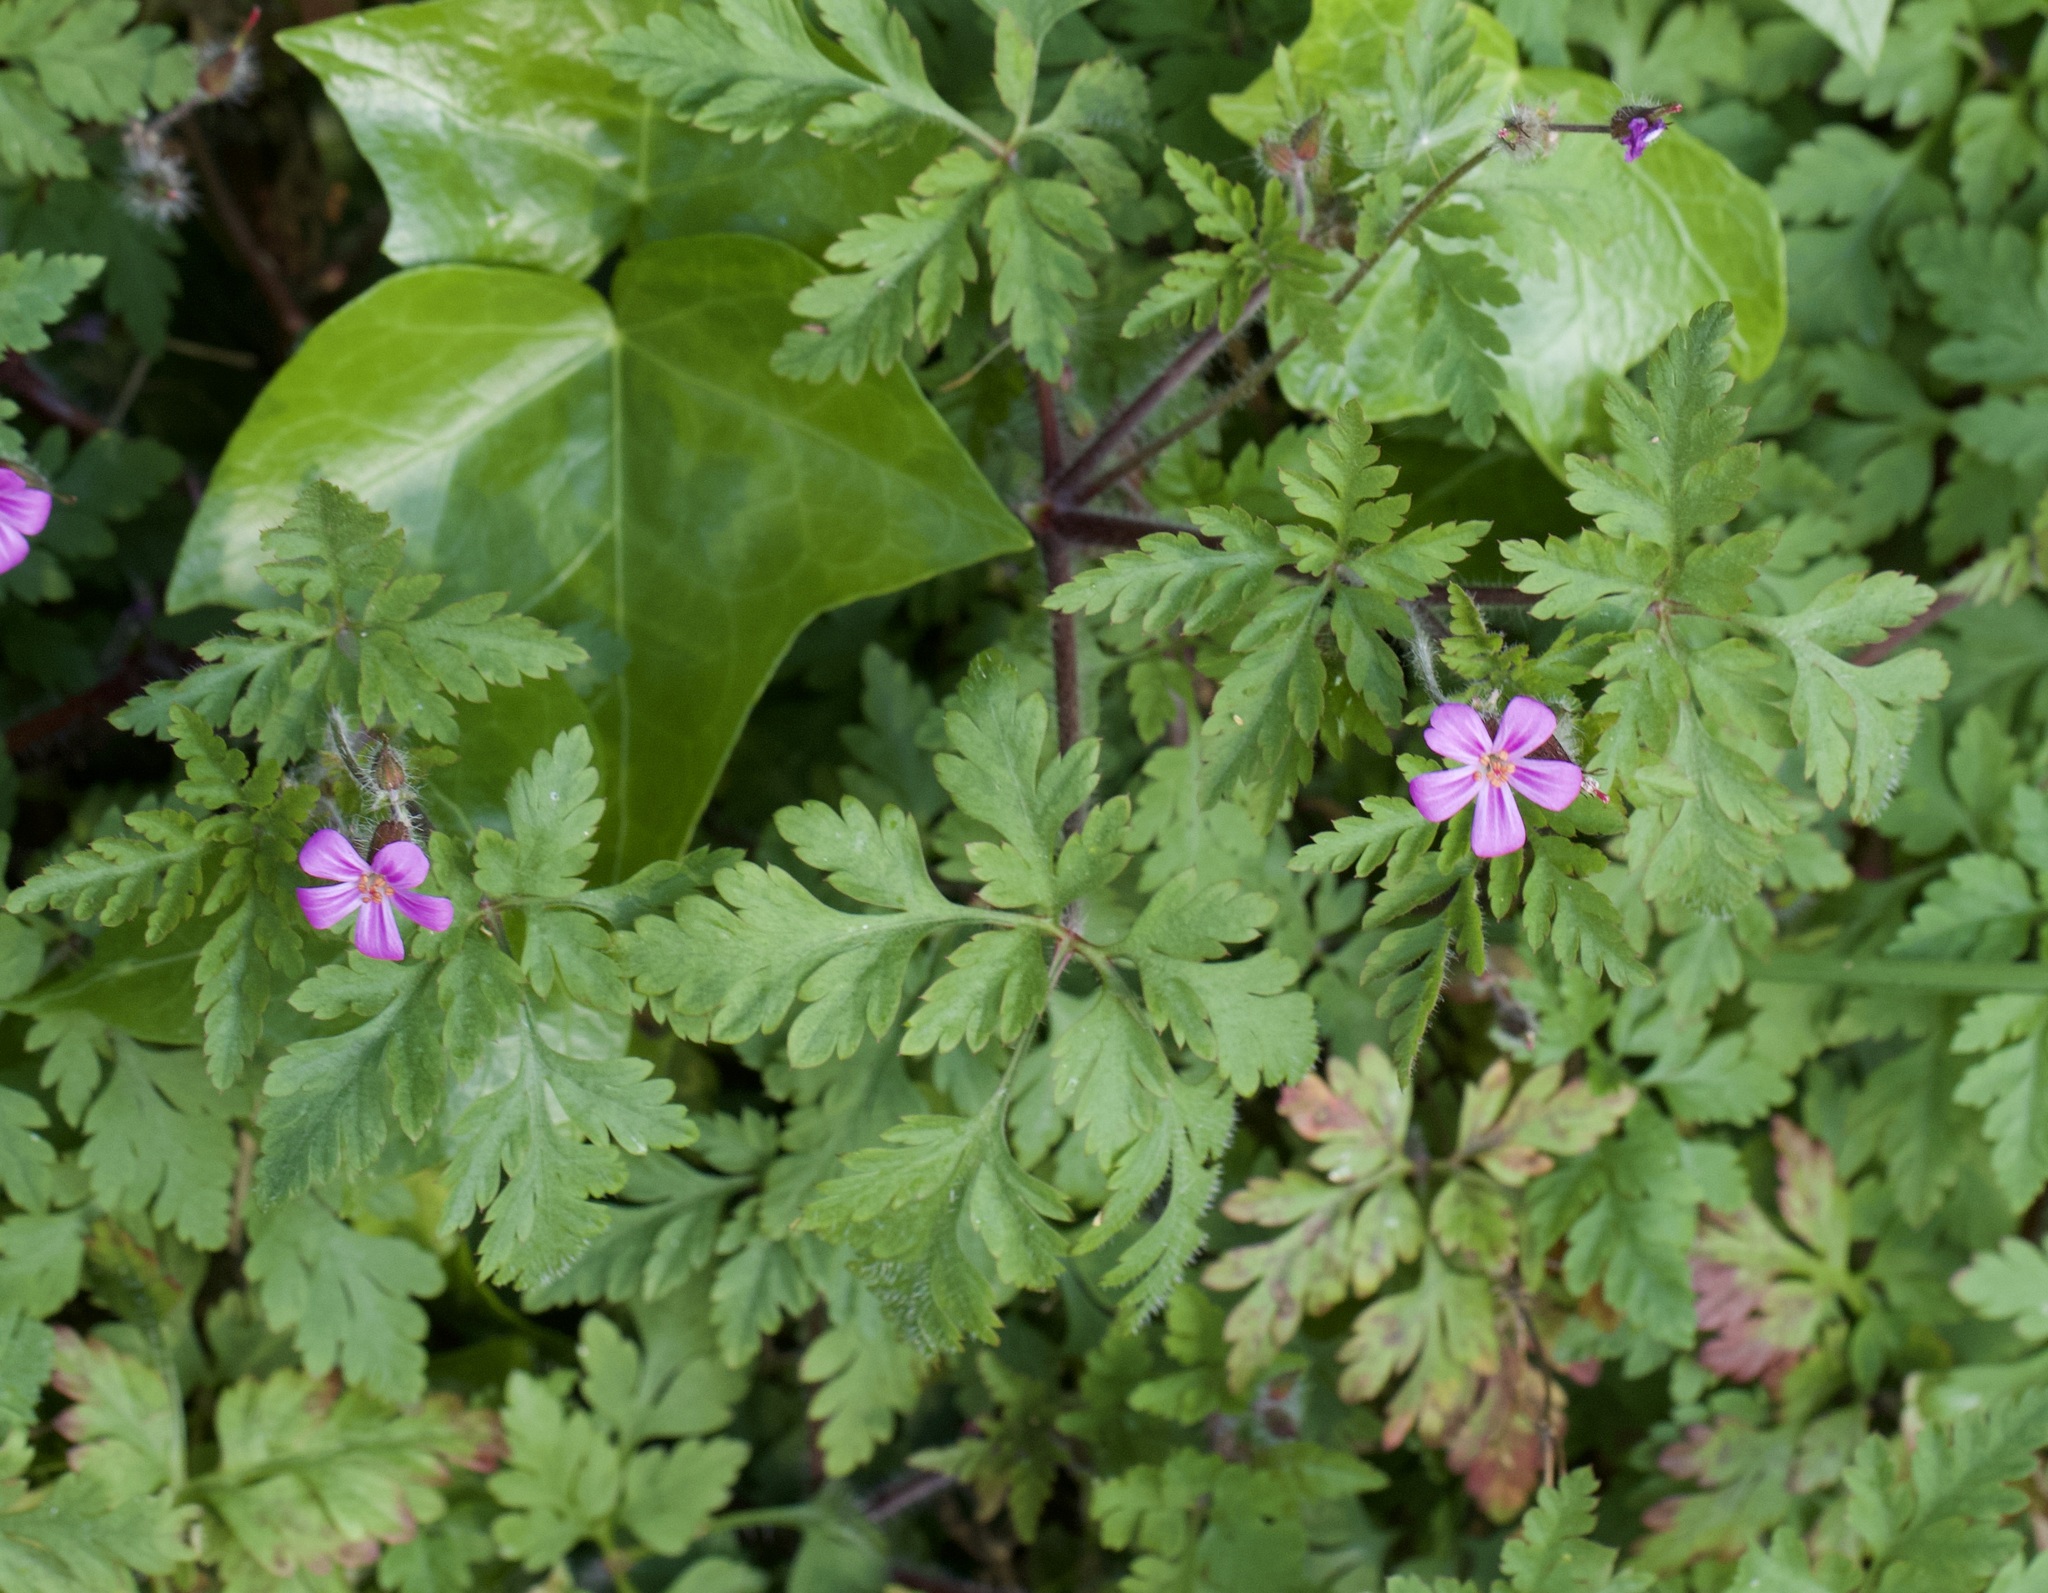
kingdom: Plantae
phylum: Tracheophyta
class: Magnoliopsida
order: Geraniales
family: Geraniaceae
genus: Geranium
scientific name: Geranium robertianum
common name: Herb-robert
